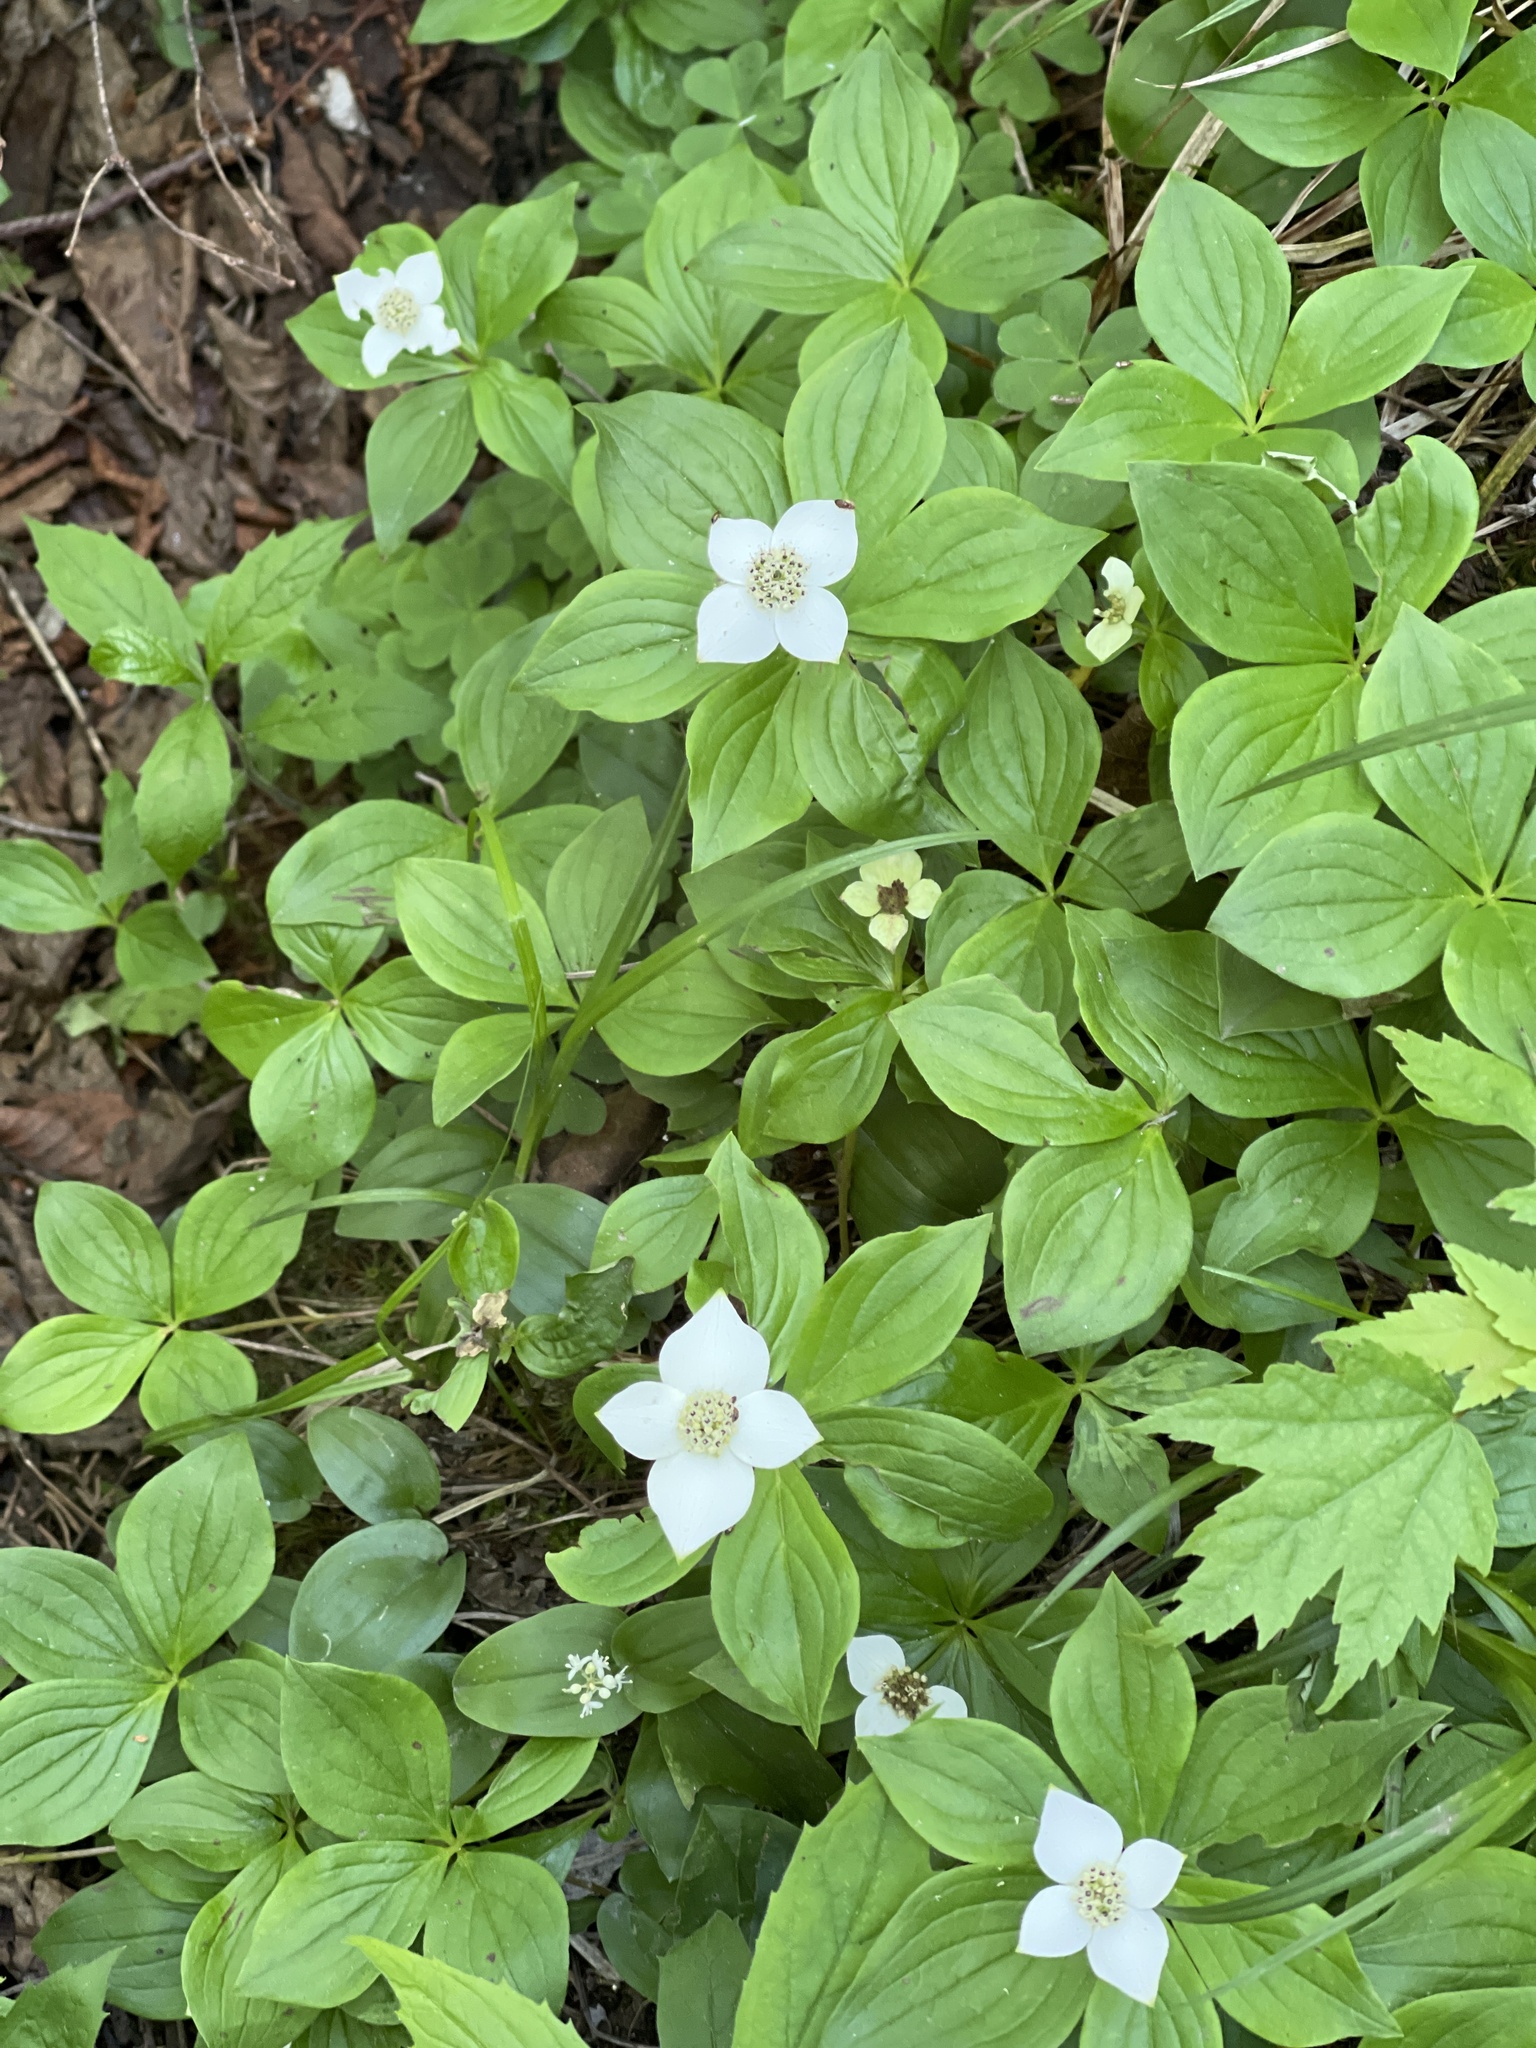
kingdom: Plantae
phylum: Tracheophyta
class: Magnoliopsida
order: Cornales
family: Cornaceae
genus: Cornus
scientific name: Cornus canadensis
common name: Creeping dogwood
